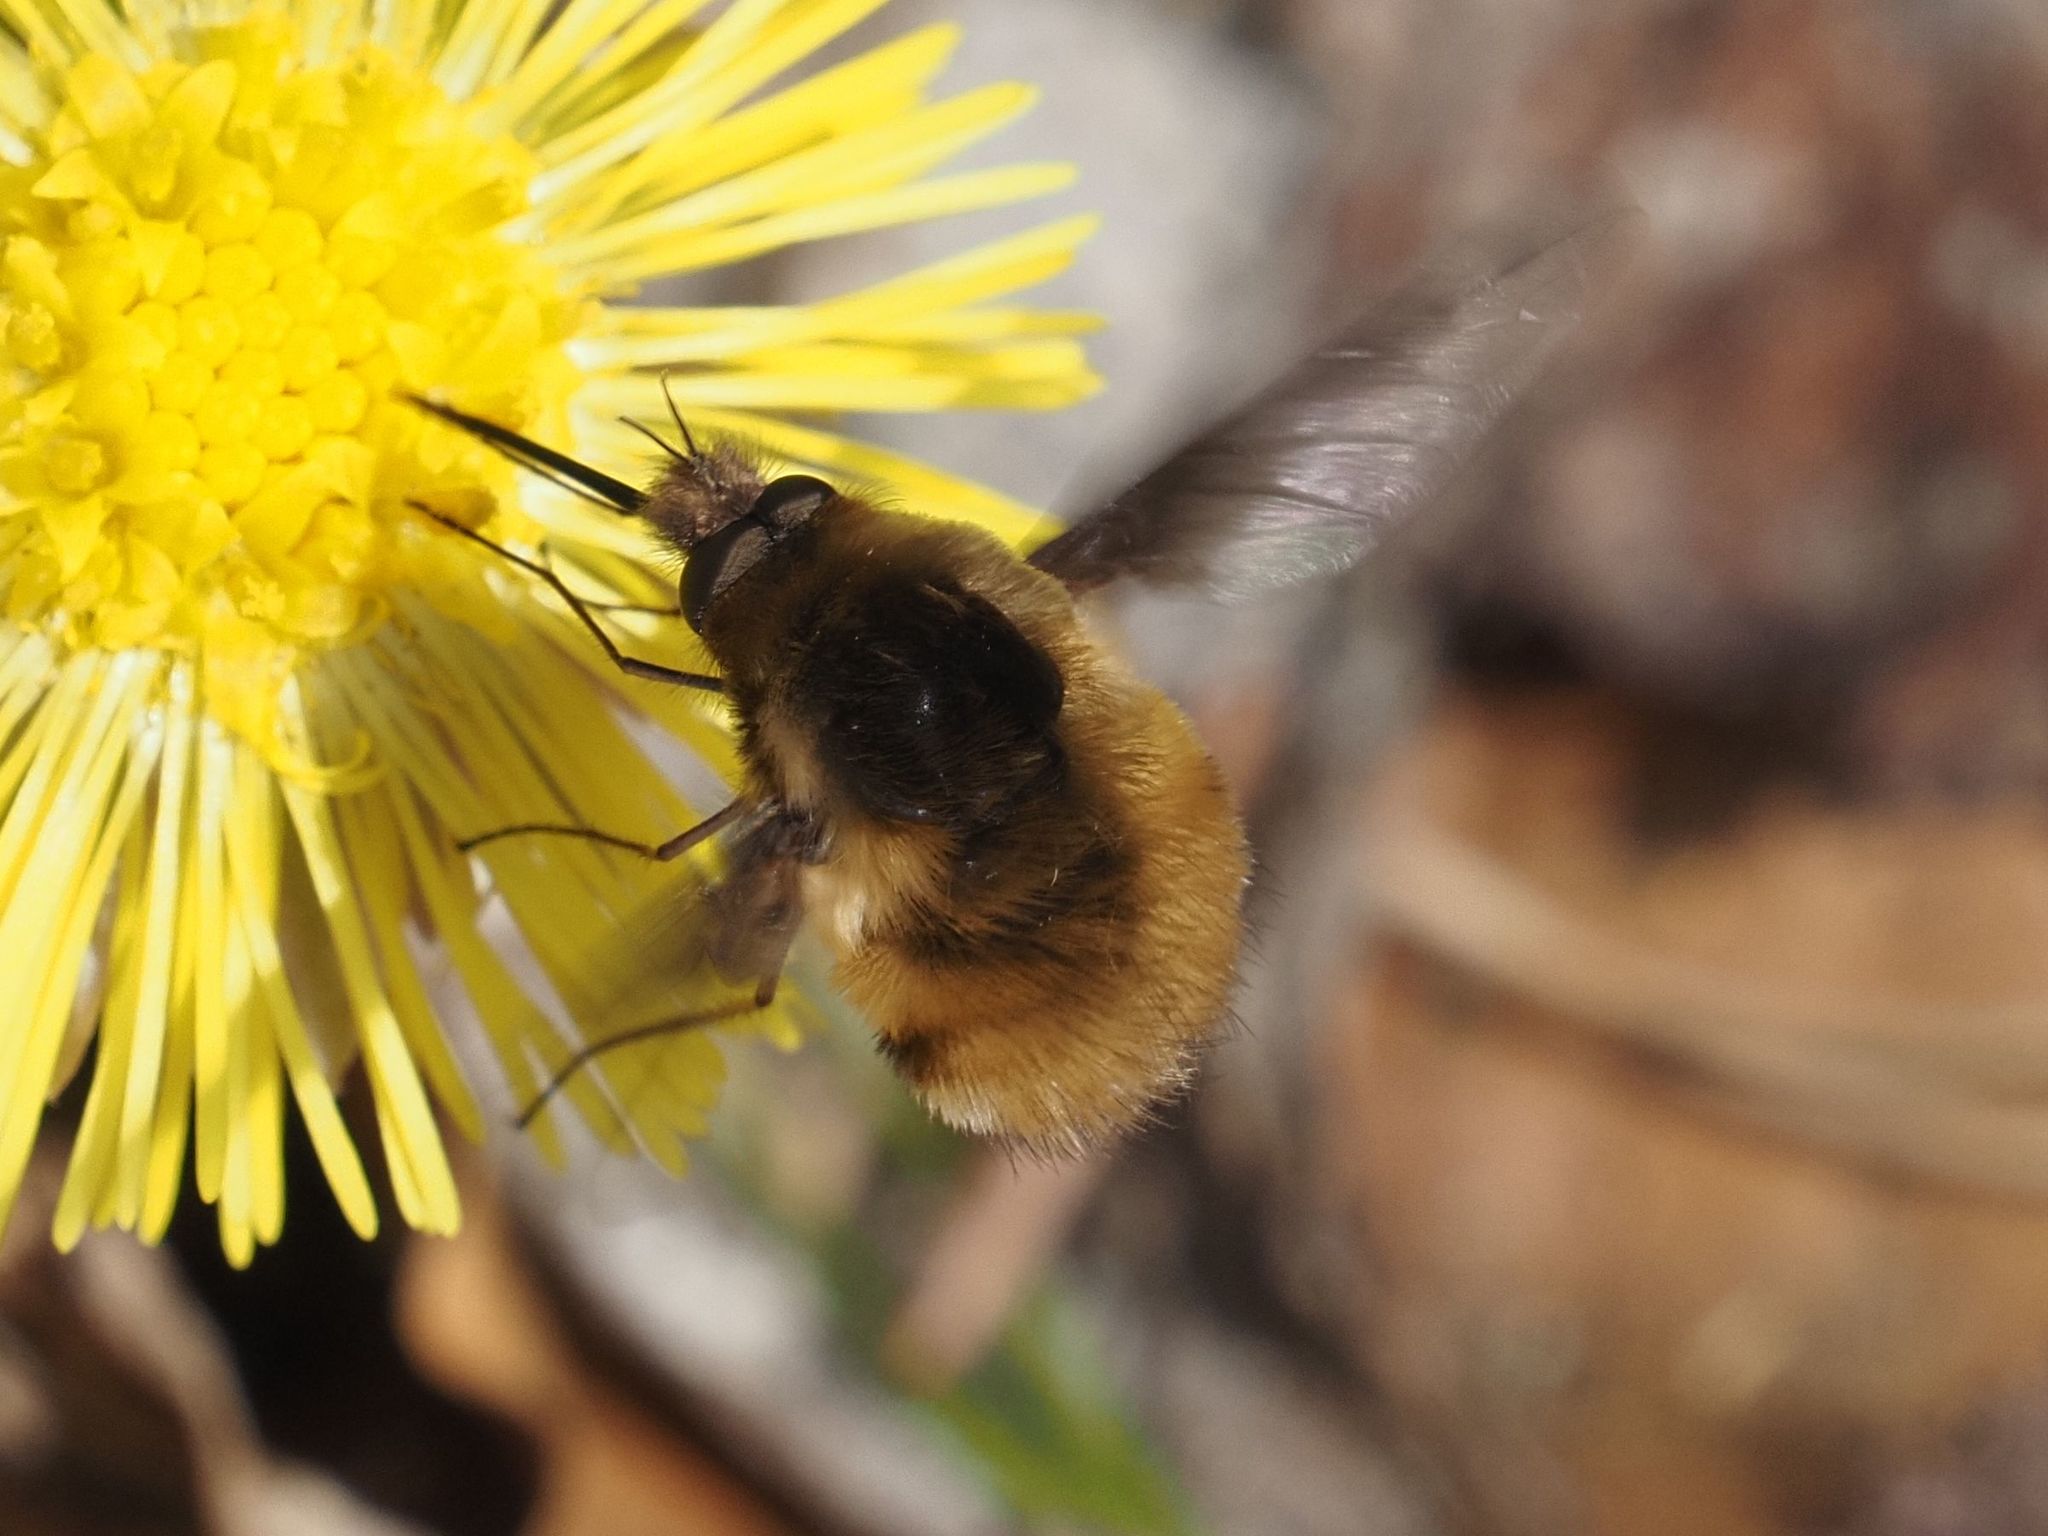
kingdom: Animalia
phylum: Arthropoda
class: Insecta
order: Diptera
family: Bombyliidae
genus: Bombylius
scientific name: Bombylius major
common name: Bee fly
